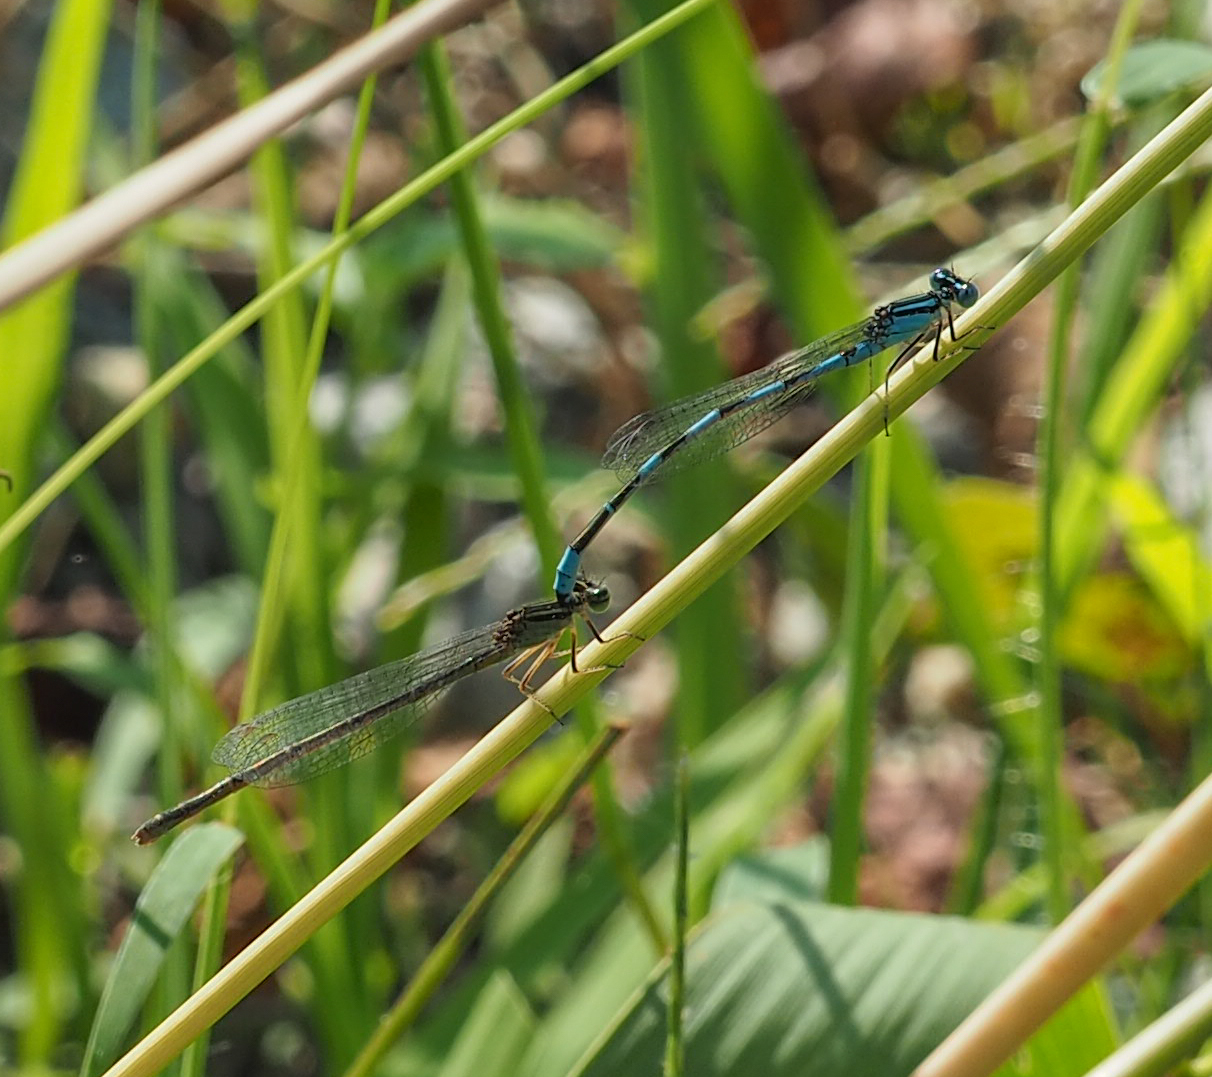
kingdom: Animalia
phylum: Arthropoda
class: Insecta
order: Odonata
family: Coenagrionidae
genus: Enallagma
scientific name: Enallagma durum
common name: Big bluet
